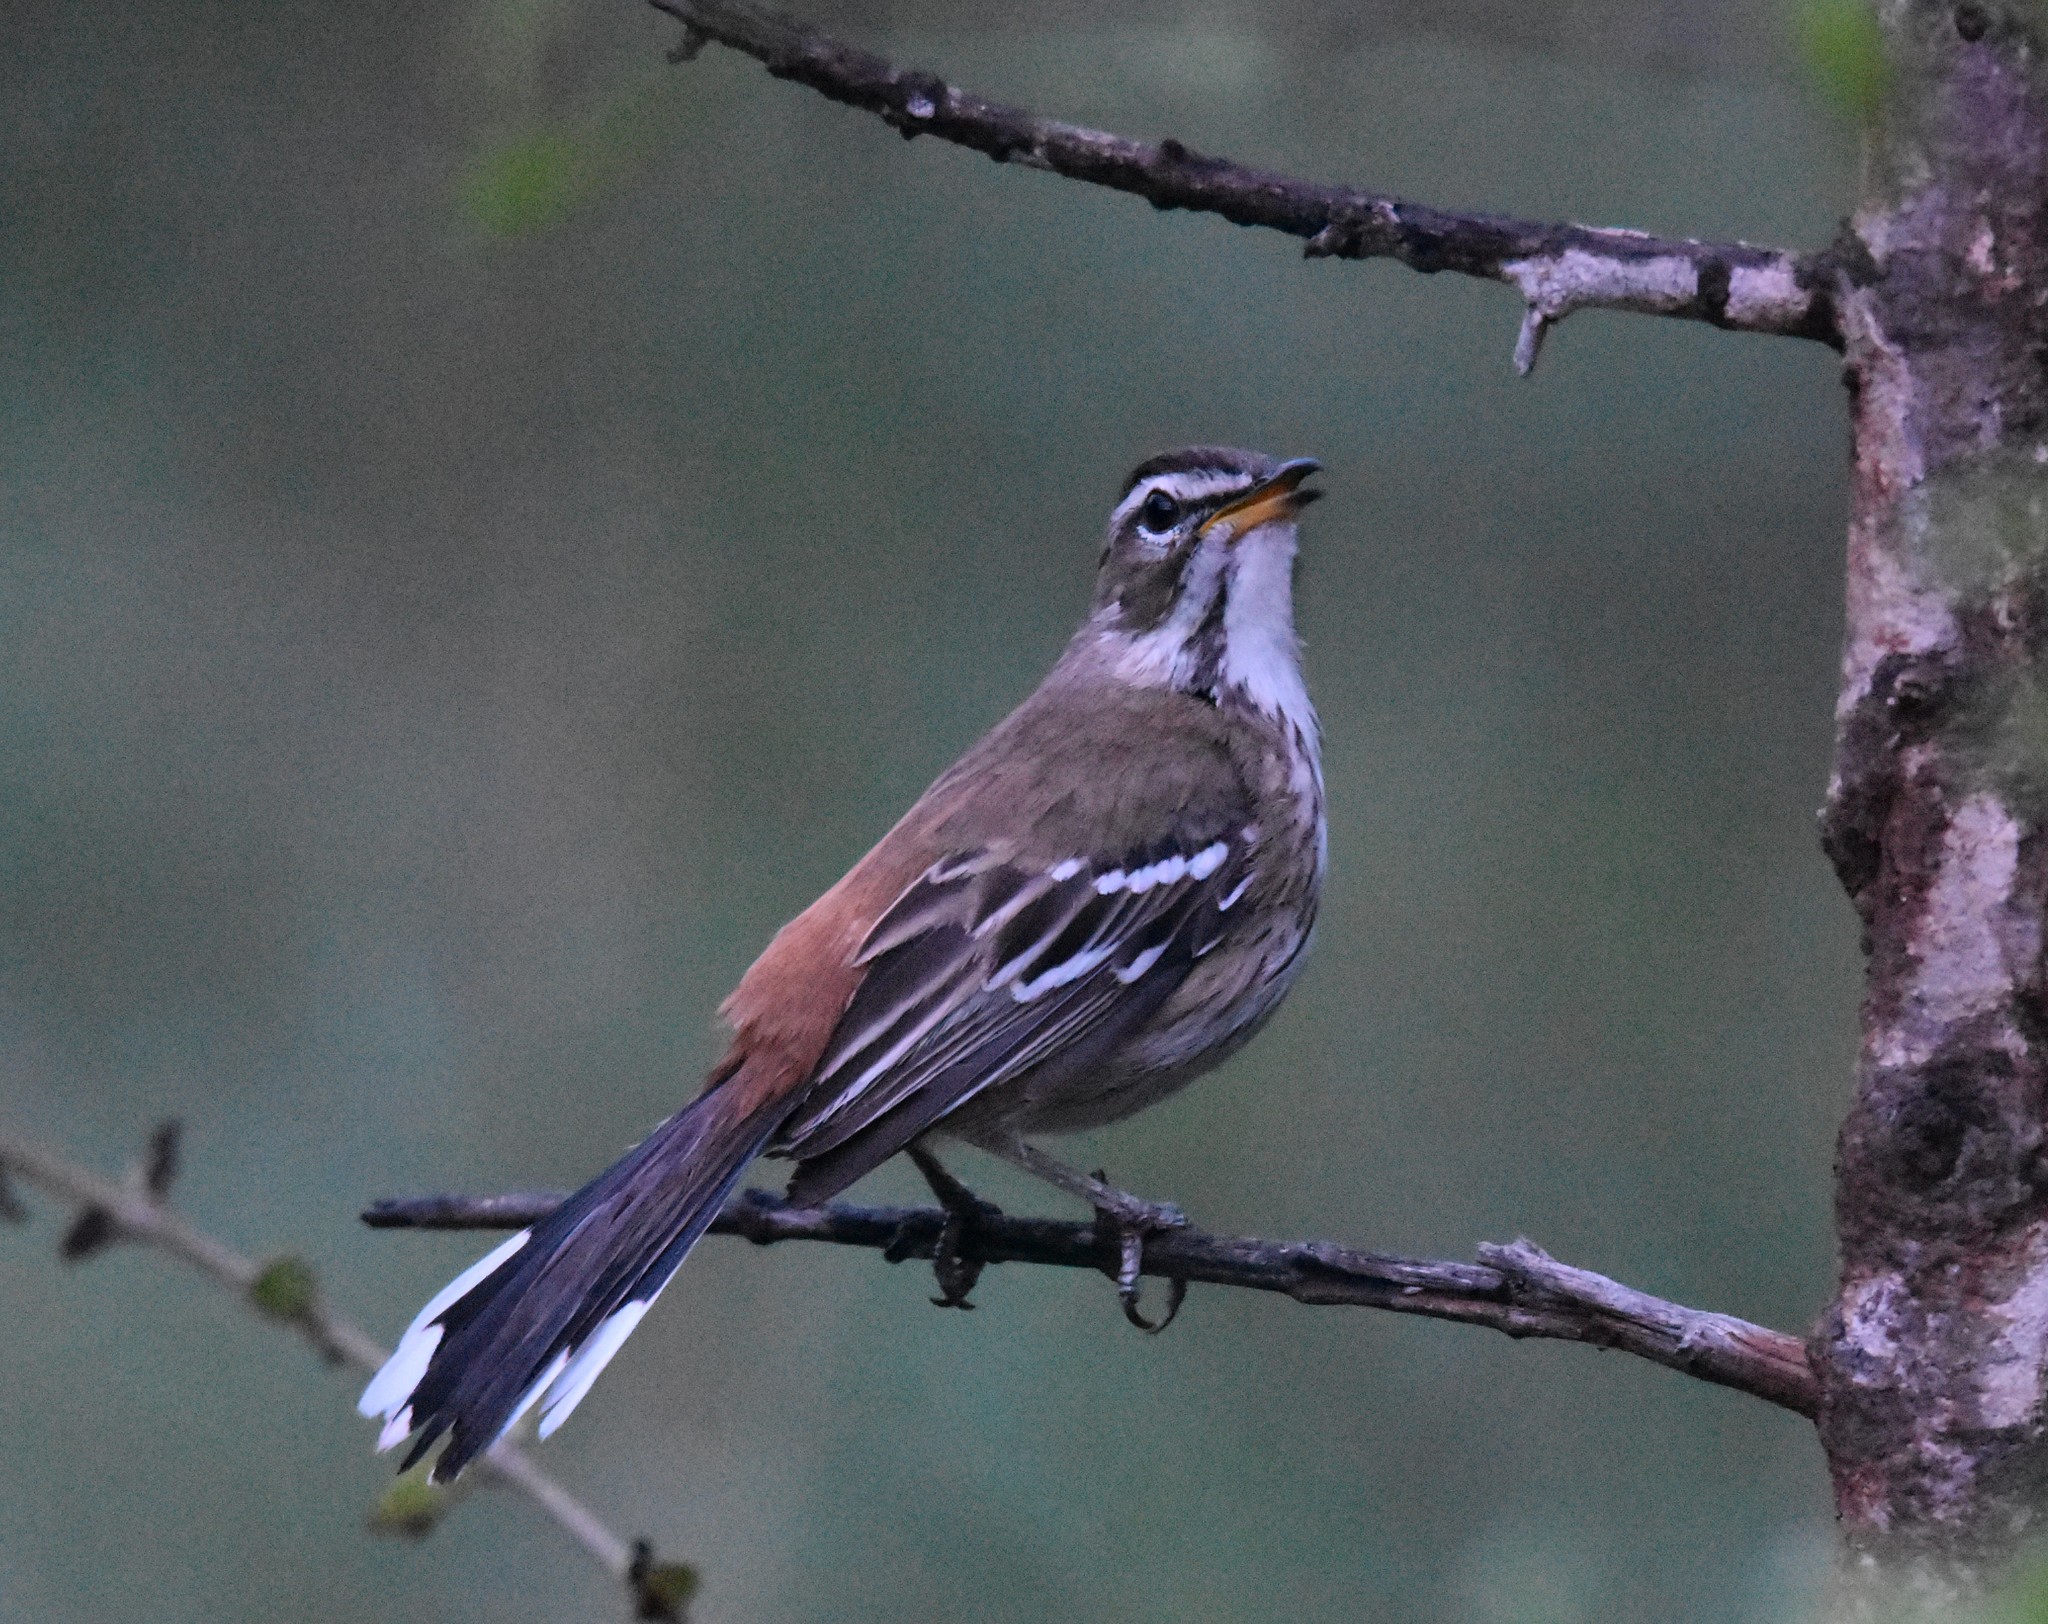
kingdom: Animalia
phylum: Chordata
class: Aves
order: Passeriformes
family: Muscicapidae
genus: Erythropygia
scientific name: Erythropygia leucophrys
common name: White-browed scrub robin
